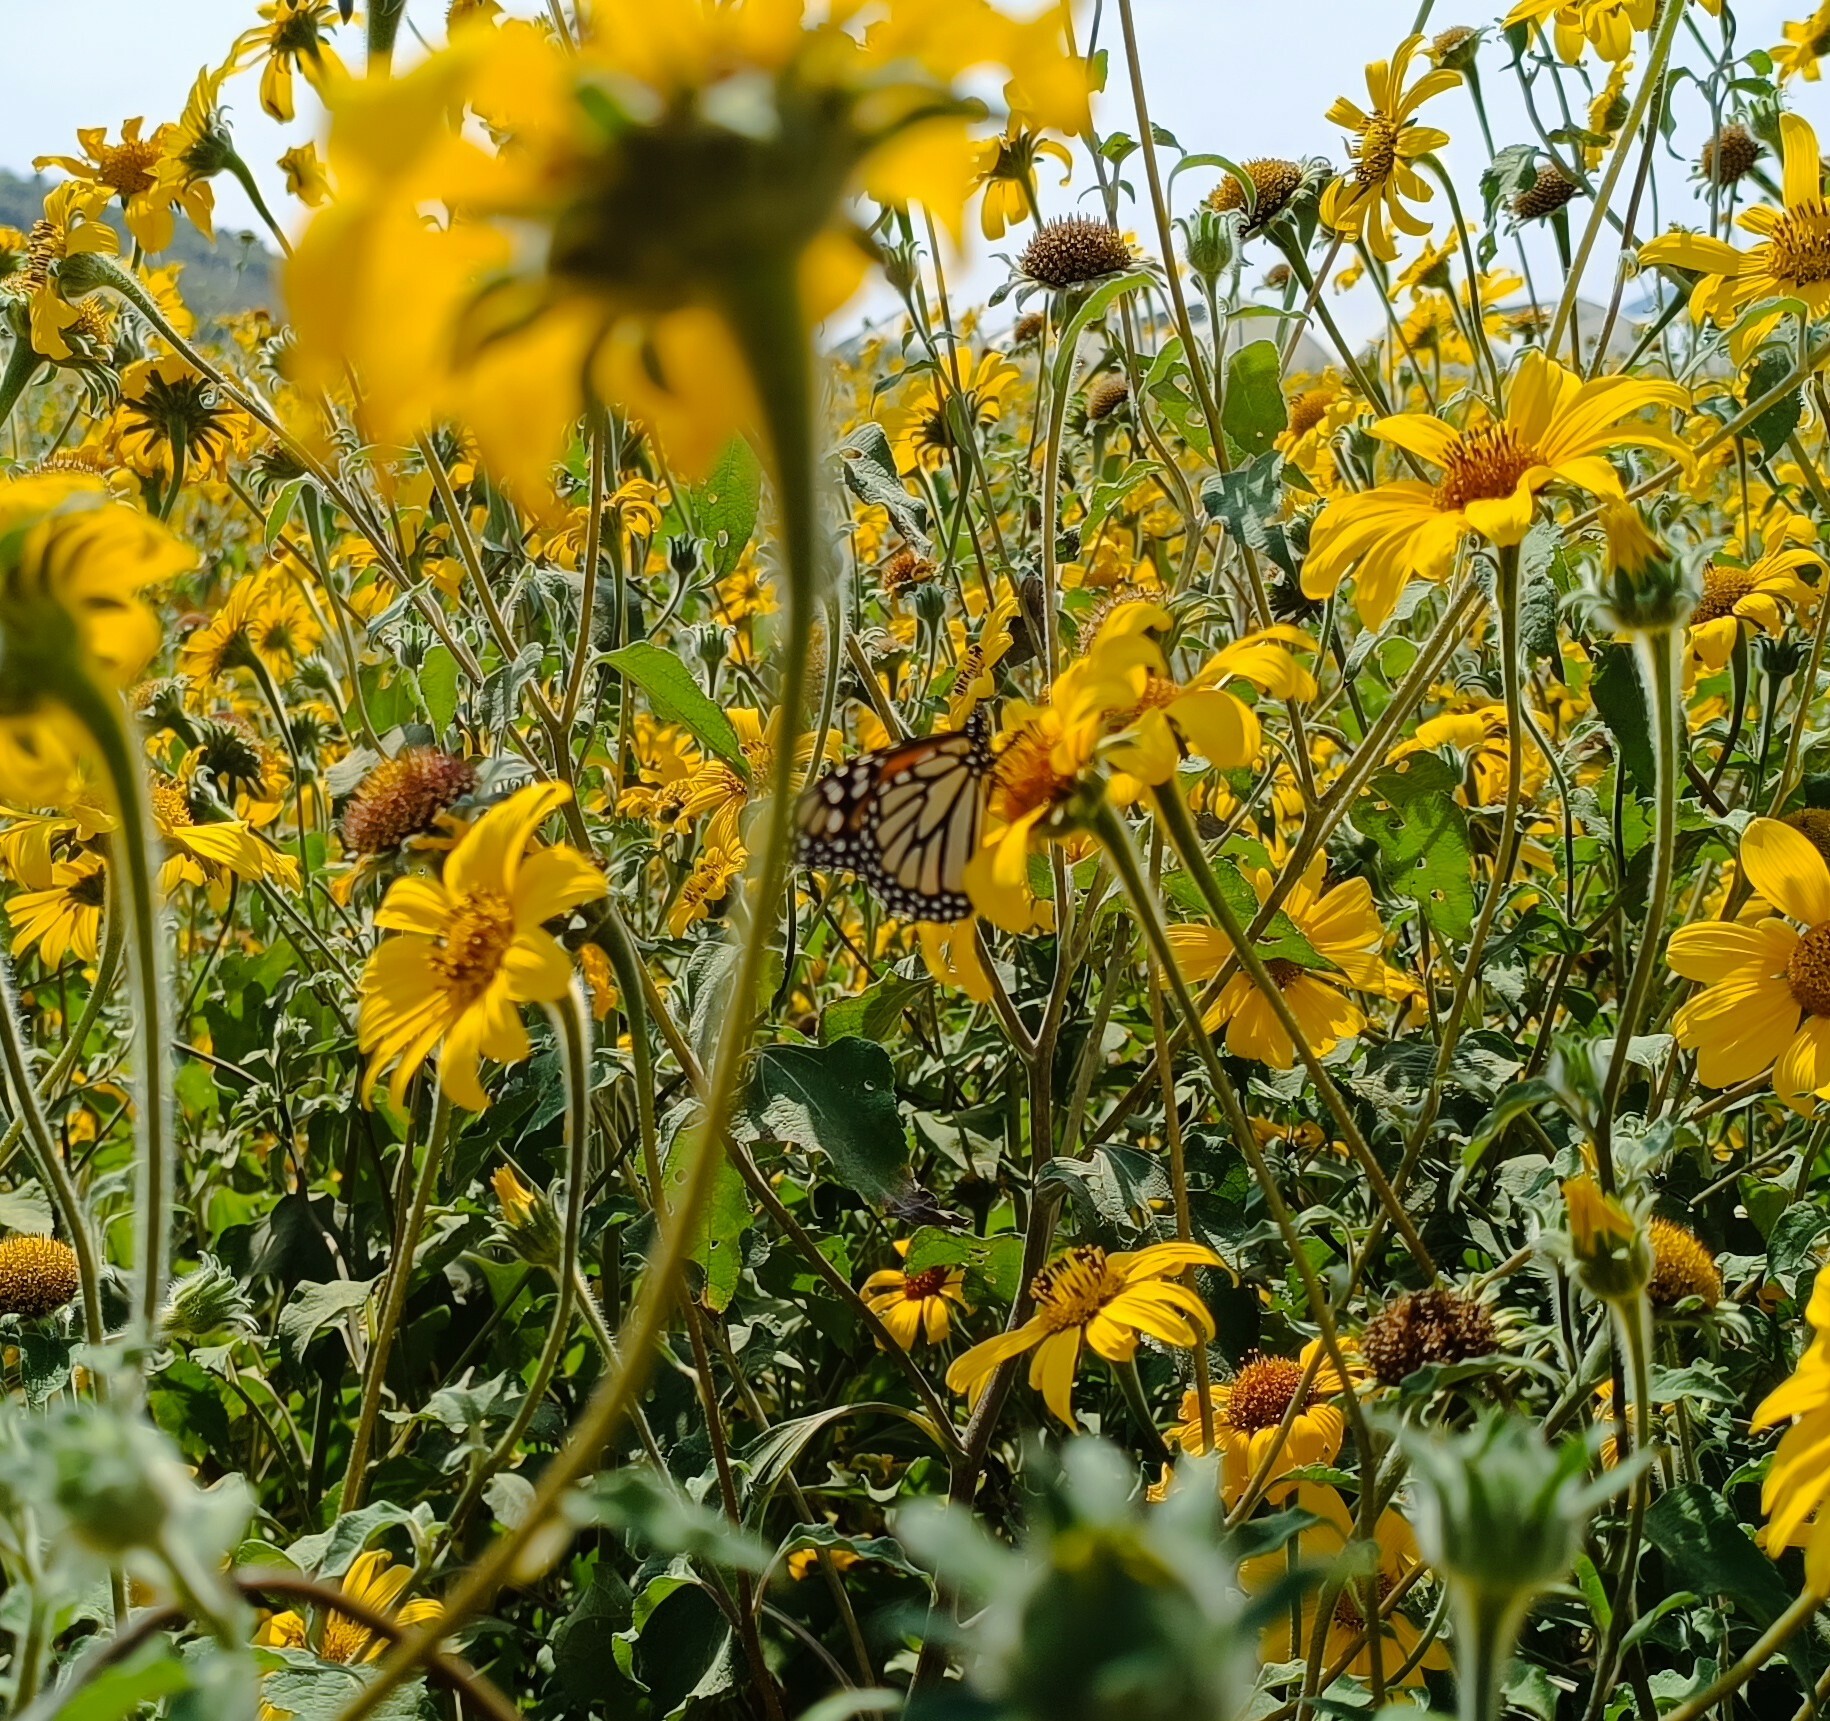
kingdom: Plantae
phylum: Tracheophyta
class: Magnoliopsida
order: Asterales
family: Asteraceae
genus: Tithonia
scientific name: Tithonia tubaeformis
